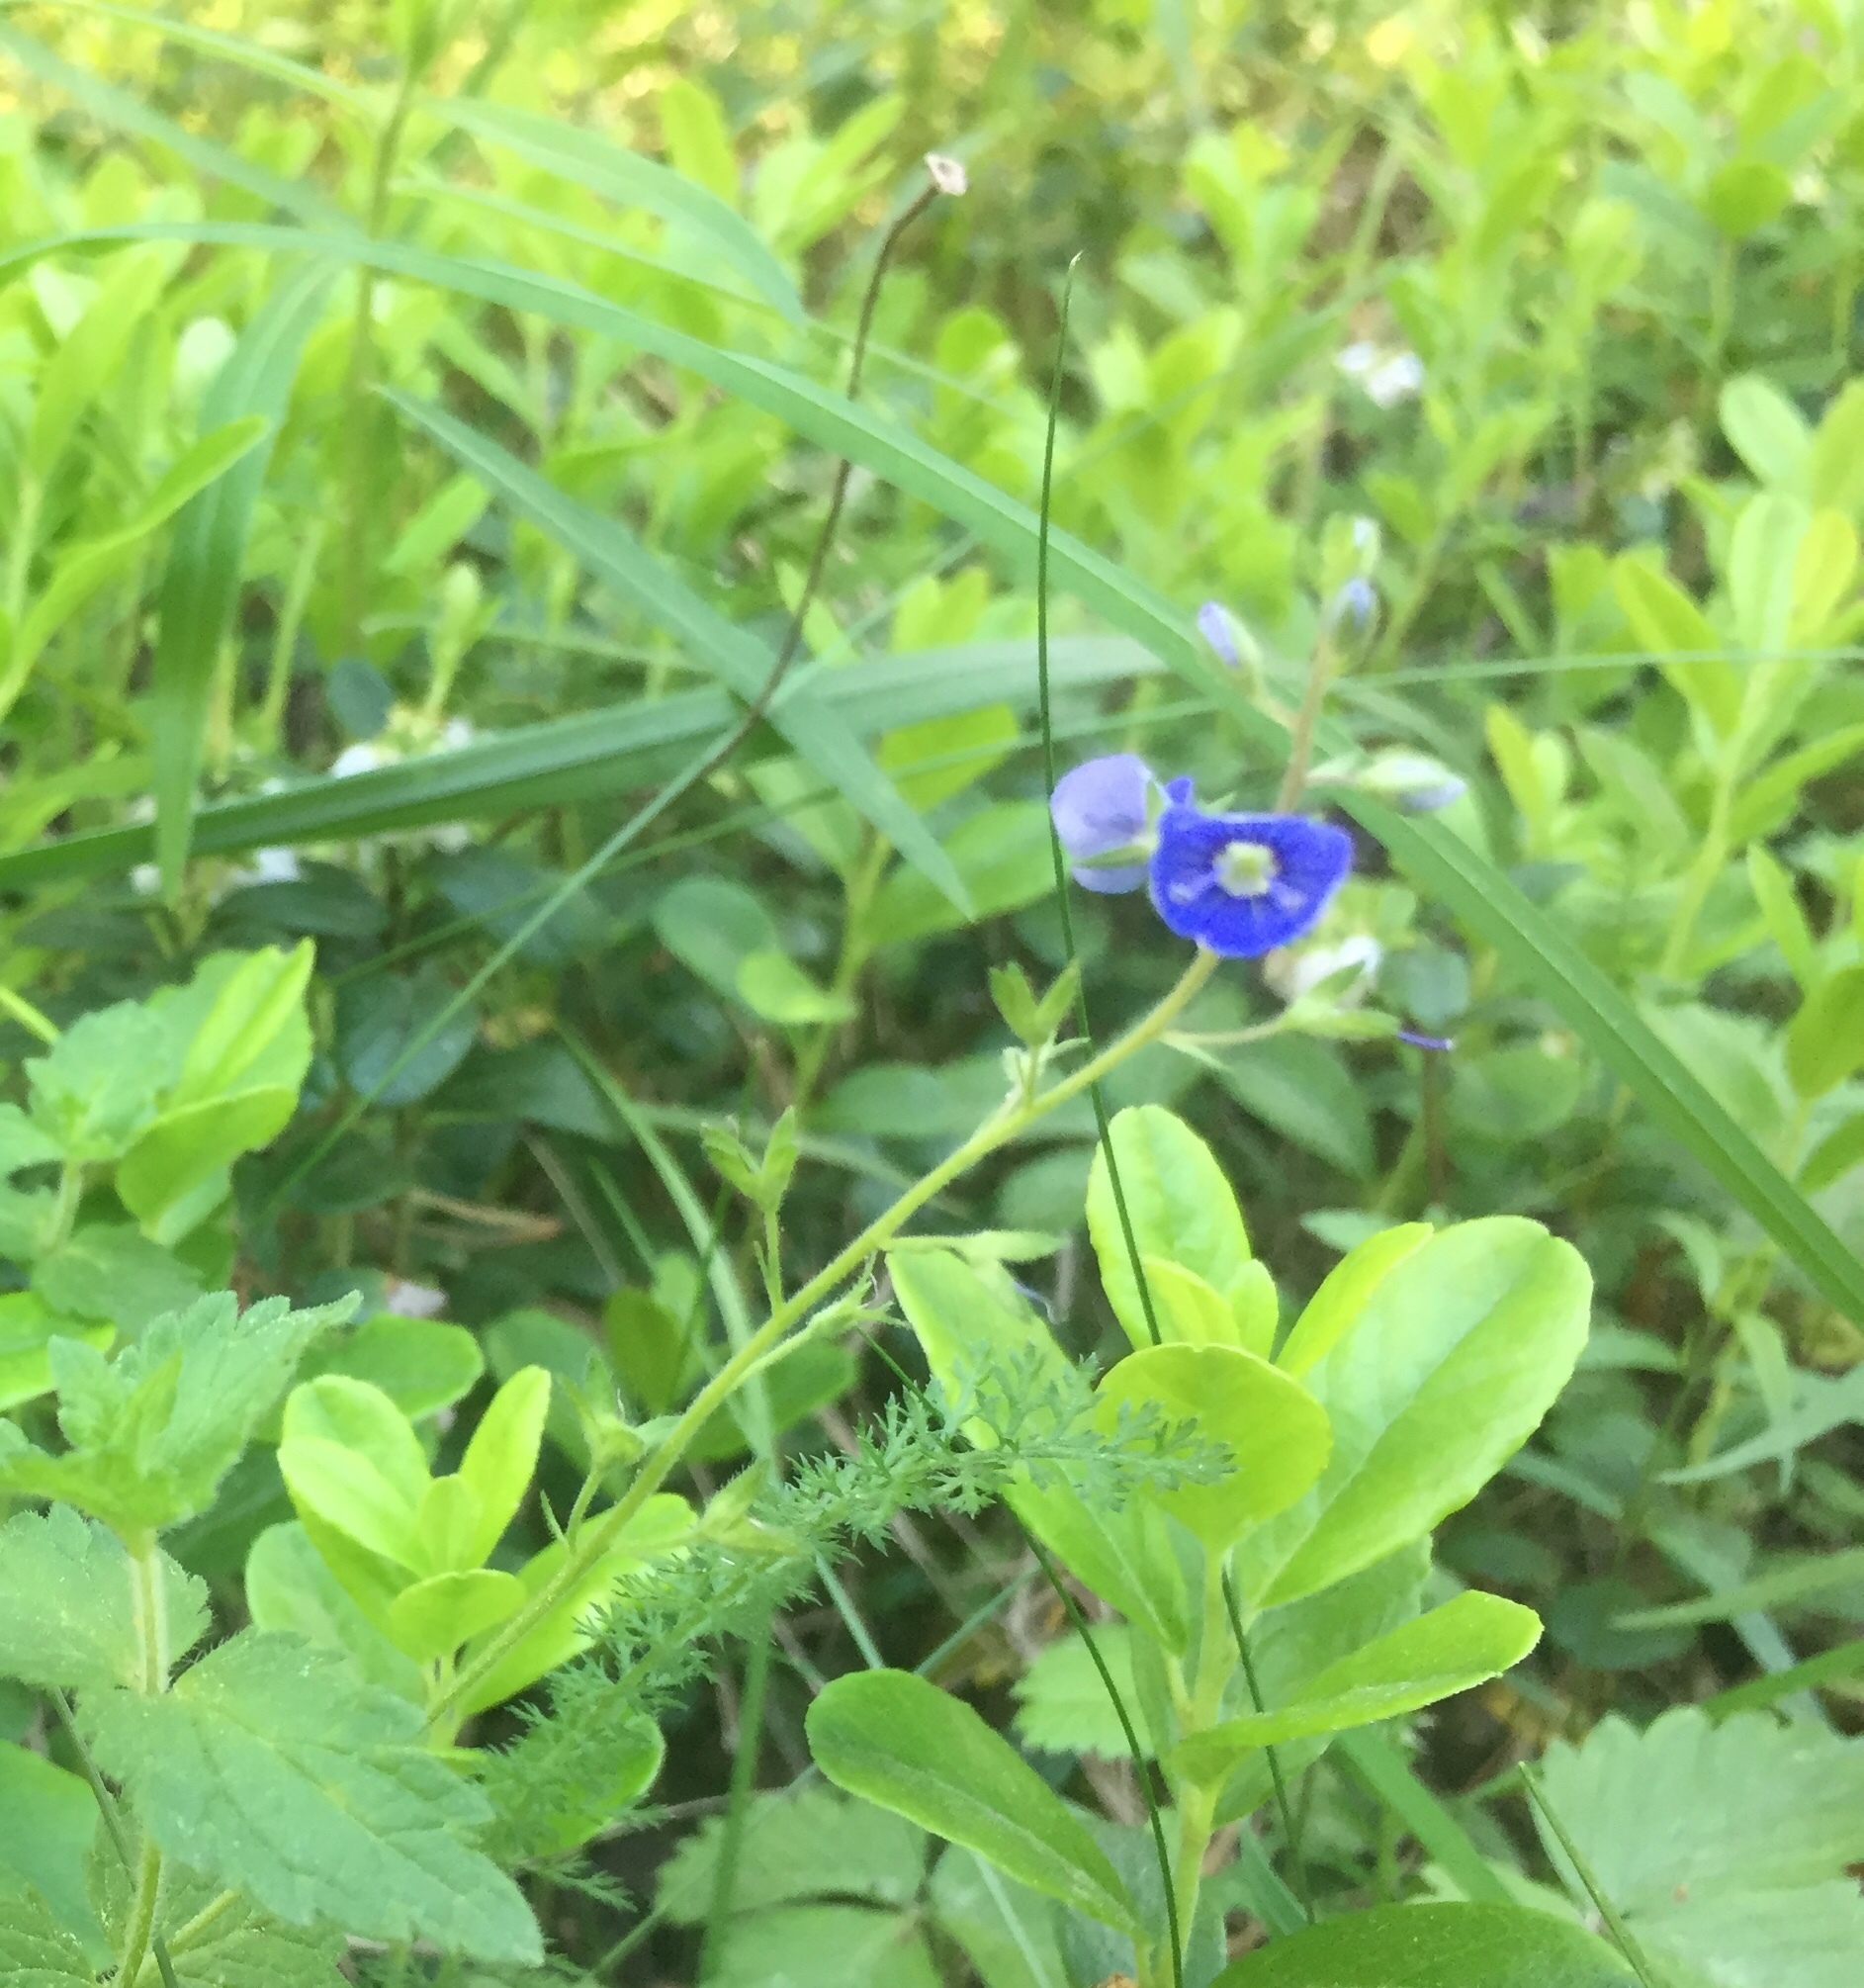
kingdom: Plantae
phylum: Tracheophyta
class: Magnoliopsida
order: Lamiales
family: Plantaginaceae
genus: Veronica
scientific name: Veronica chamaedrys
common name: Germander speedwell
